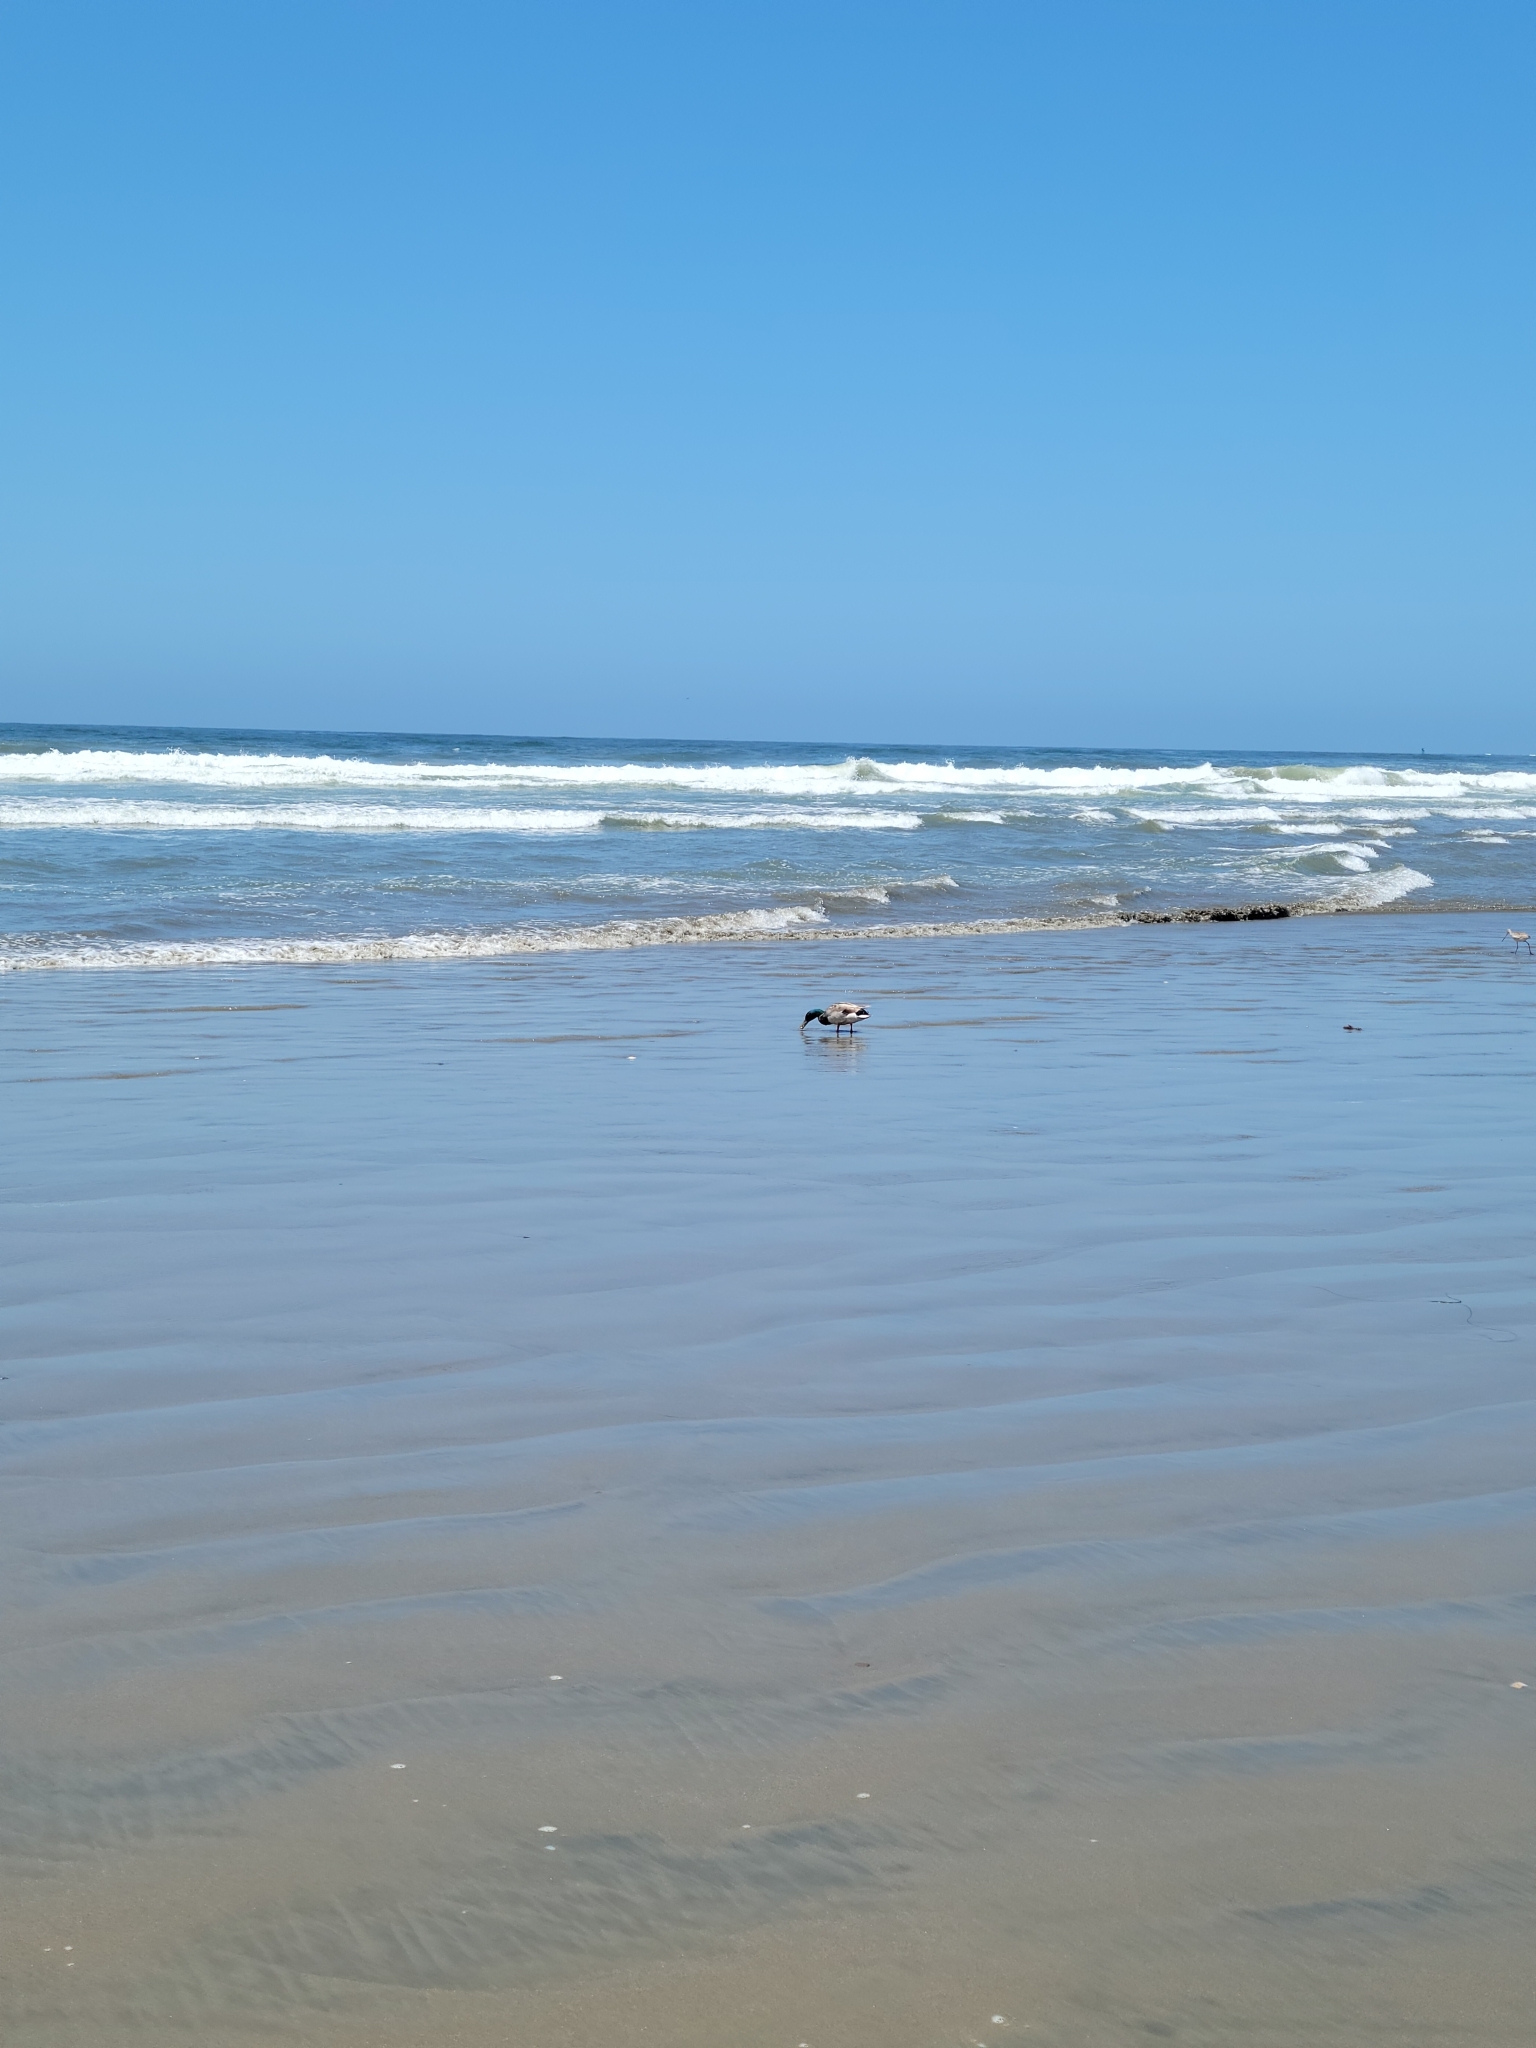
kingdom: Animalia
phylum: Chordata
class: Aves
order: Anseriformes
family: Anatidae
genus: Anas
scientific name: Anas platyrhynchos
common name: Mallard
